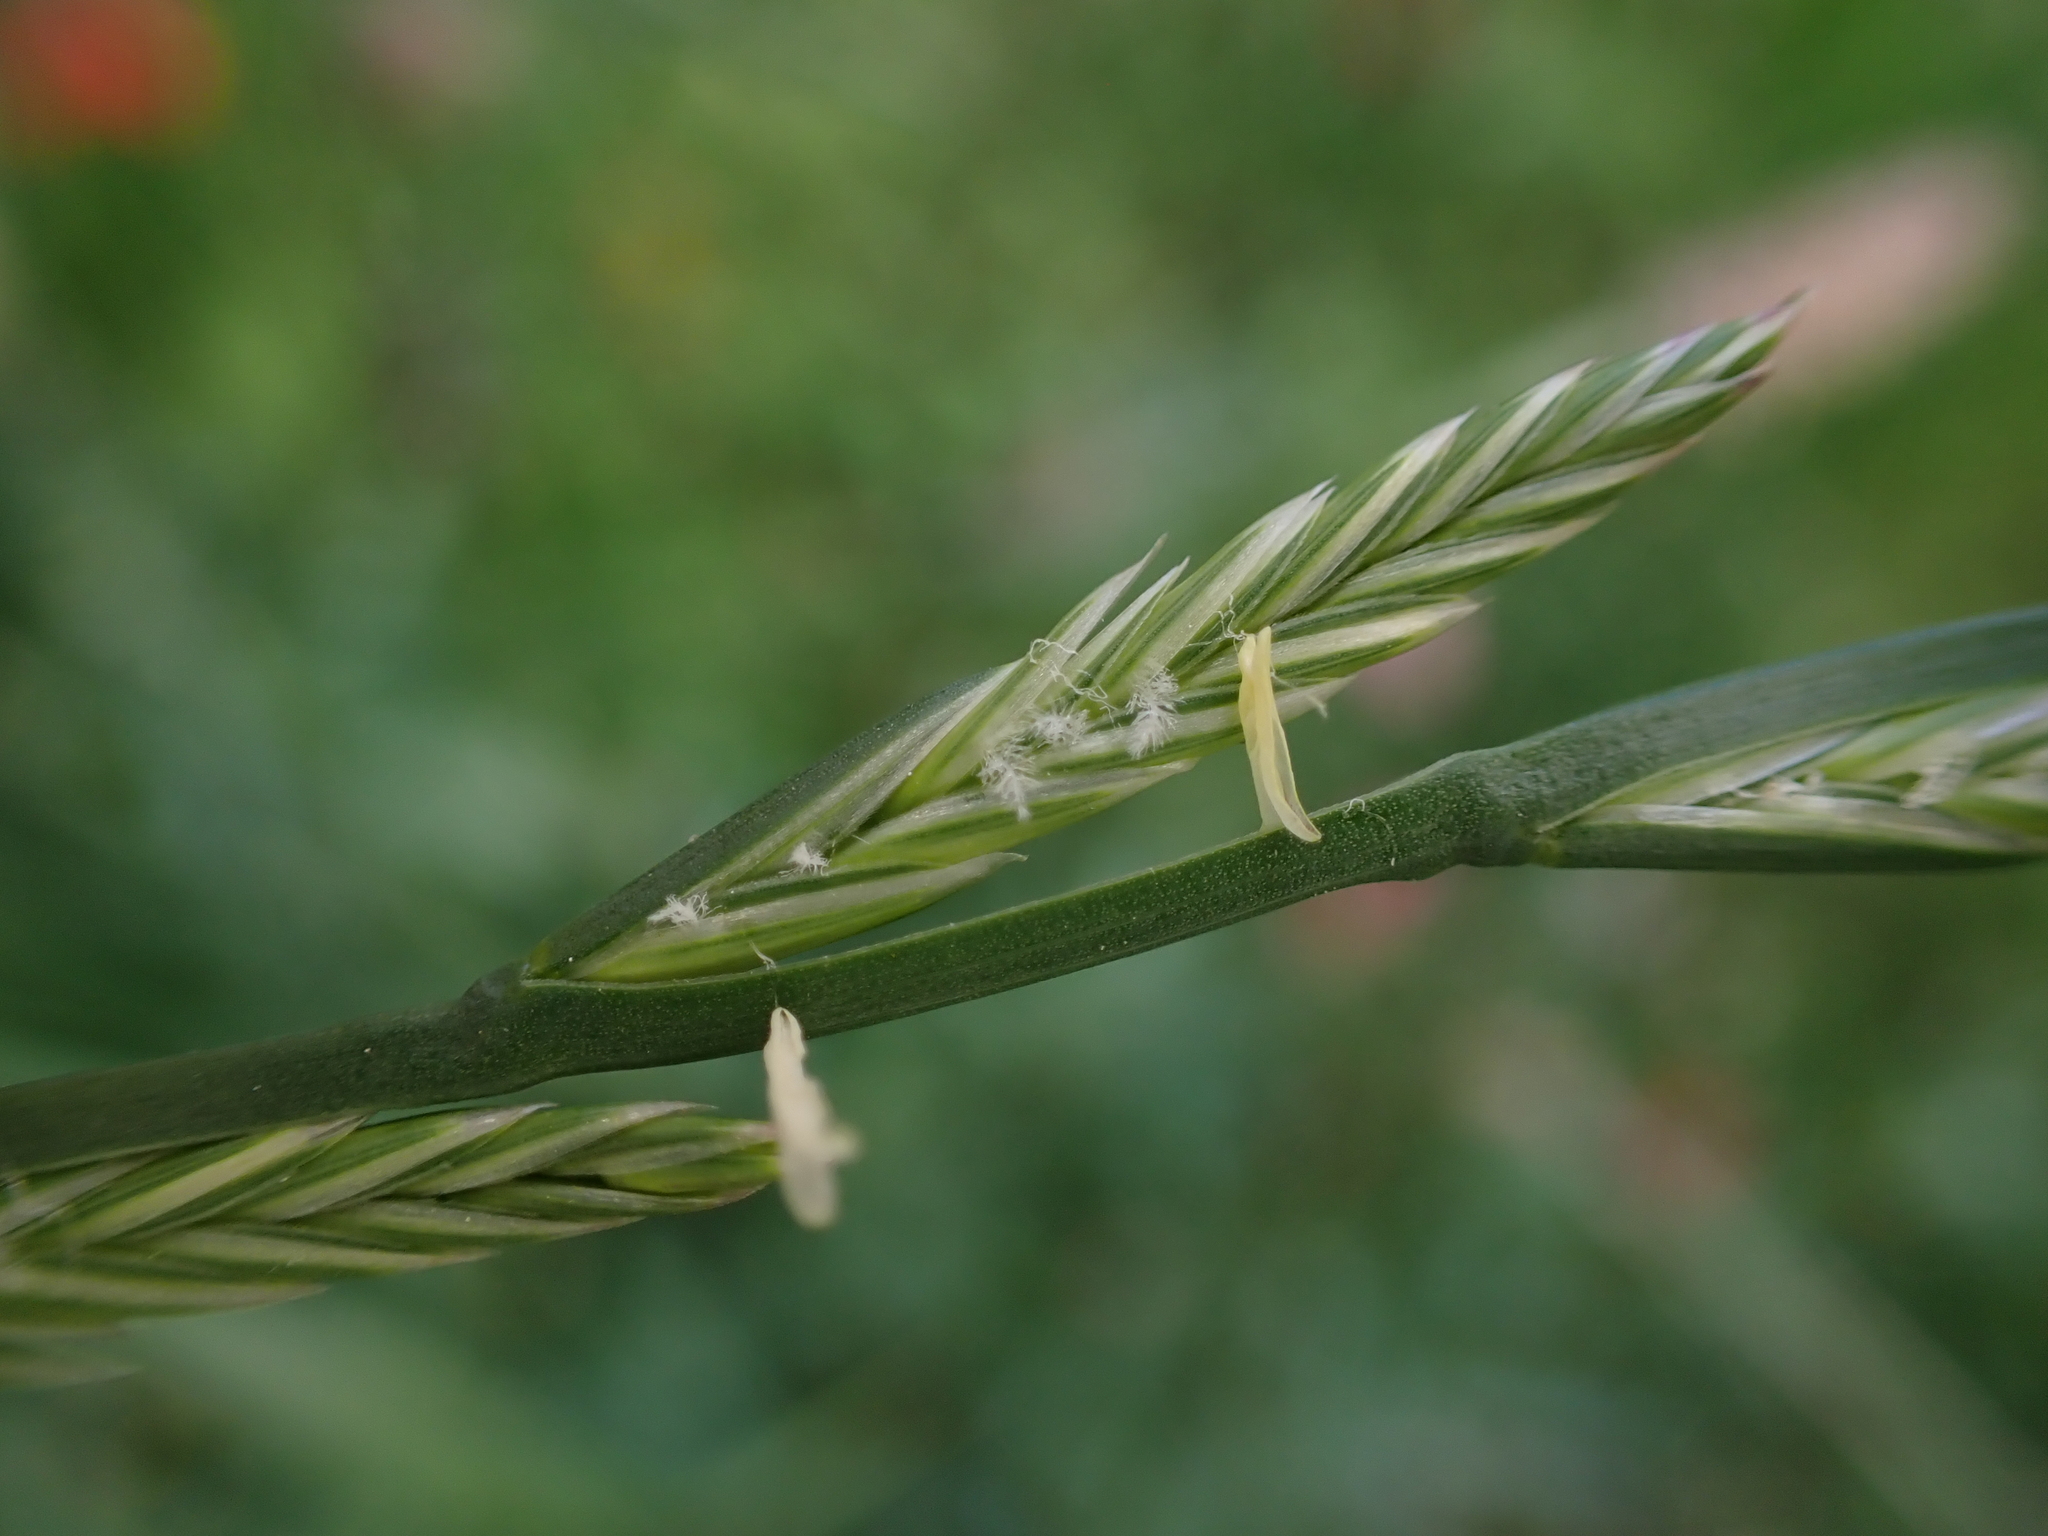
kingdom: Plantae
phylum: Tracheophyta
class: Liliopsida
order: Poales
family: Poaceae
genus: Lolium
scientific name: Lolium perenne
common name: Perennial ryegrass
